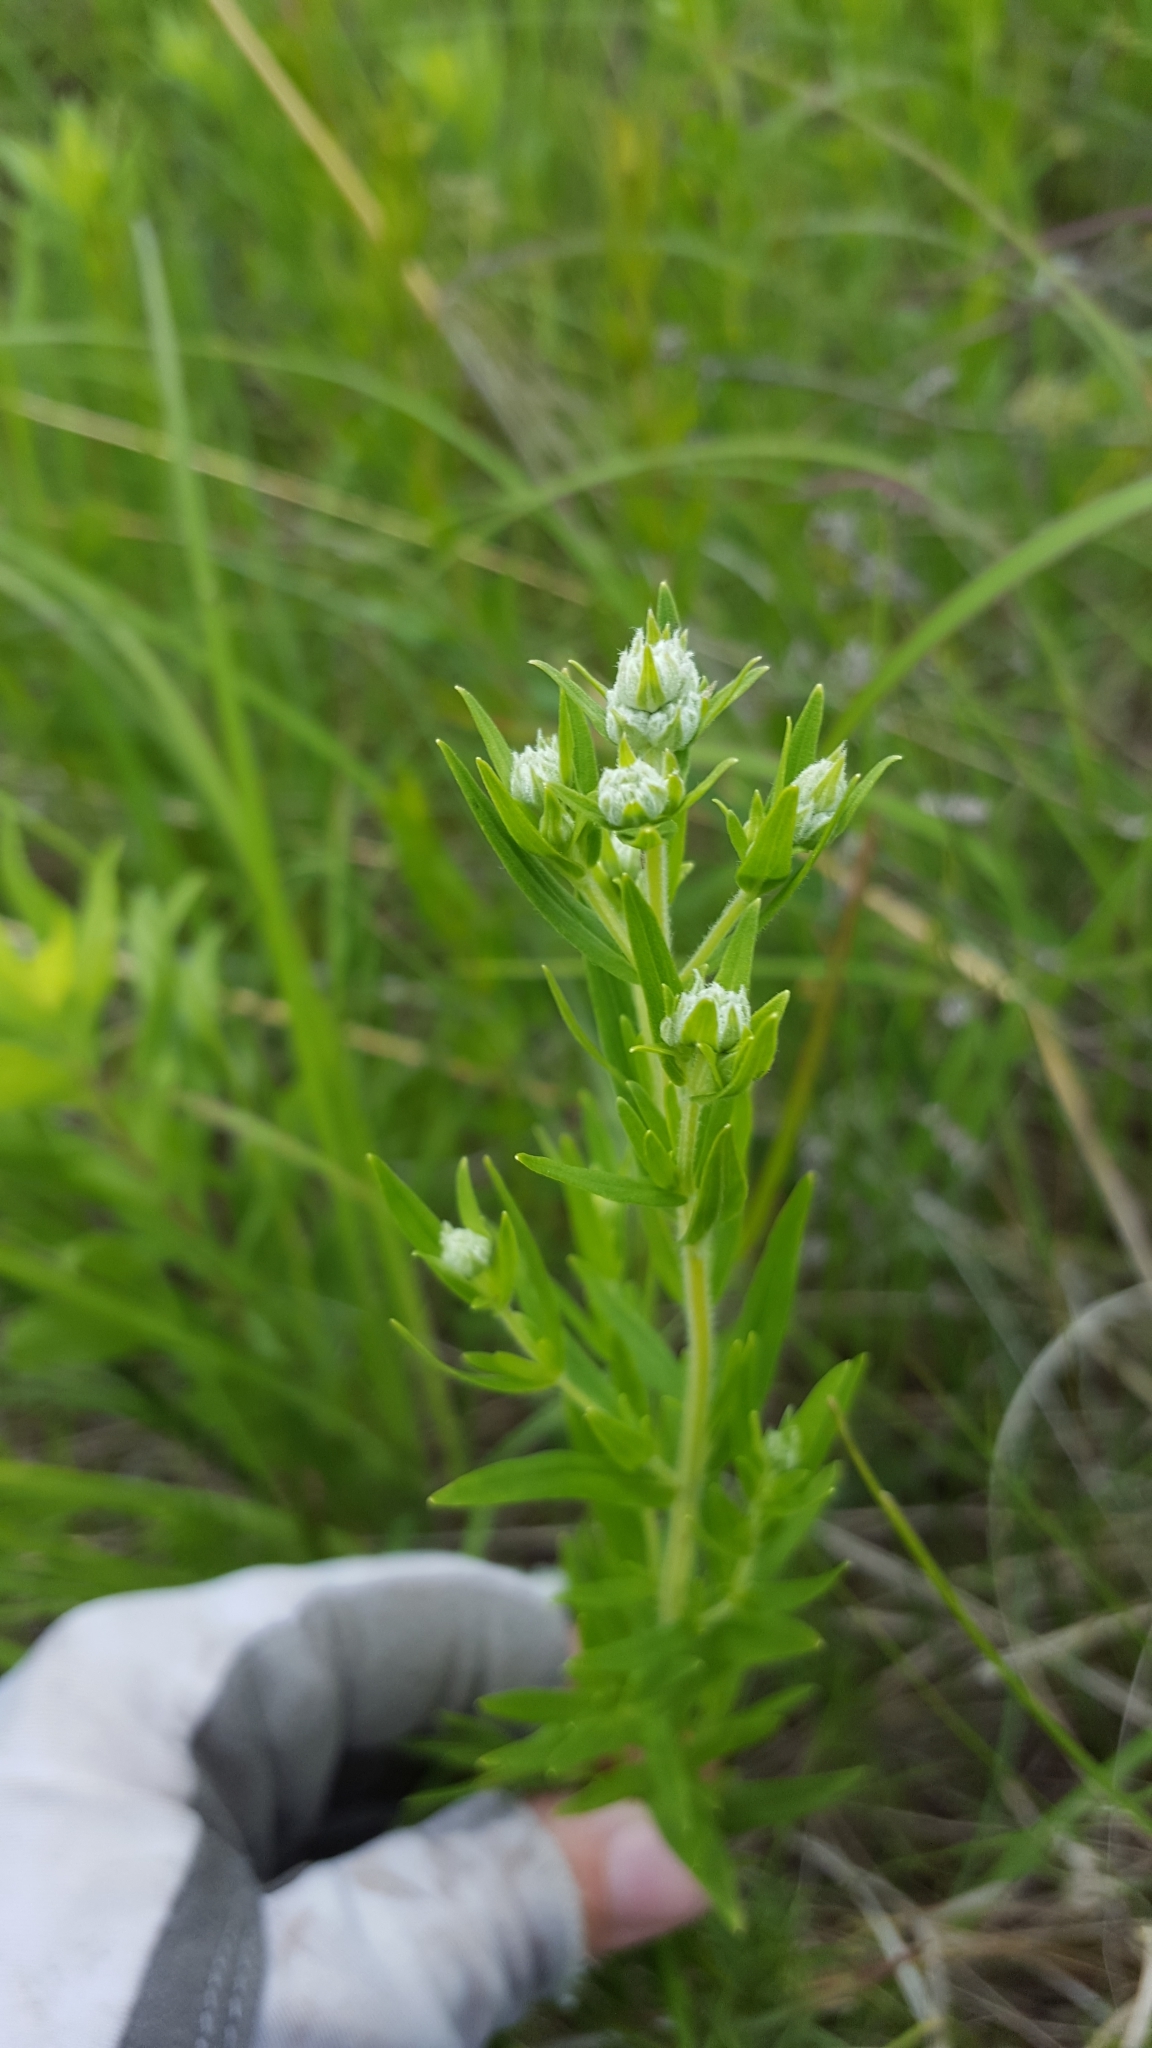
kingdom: Plantae
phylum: Tracheophyta
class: Magnoliopsida
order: Lamiales
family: Lamiaceae
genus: Pycnanthemum
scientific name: Pycnanthemum virginianum
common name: Virginia mountain-mint
